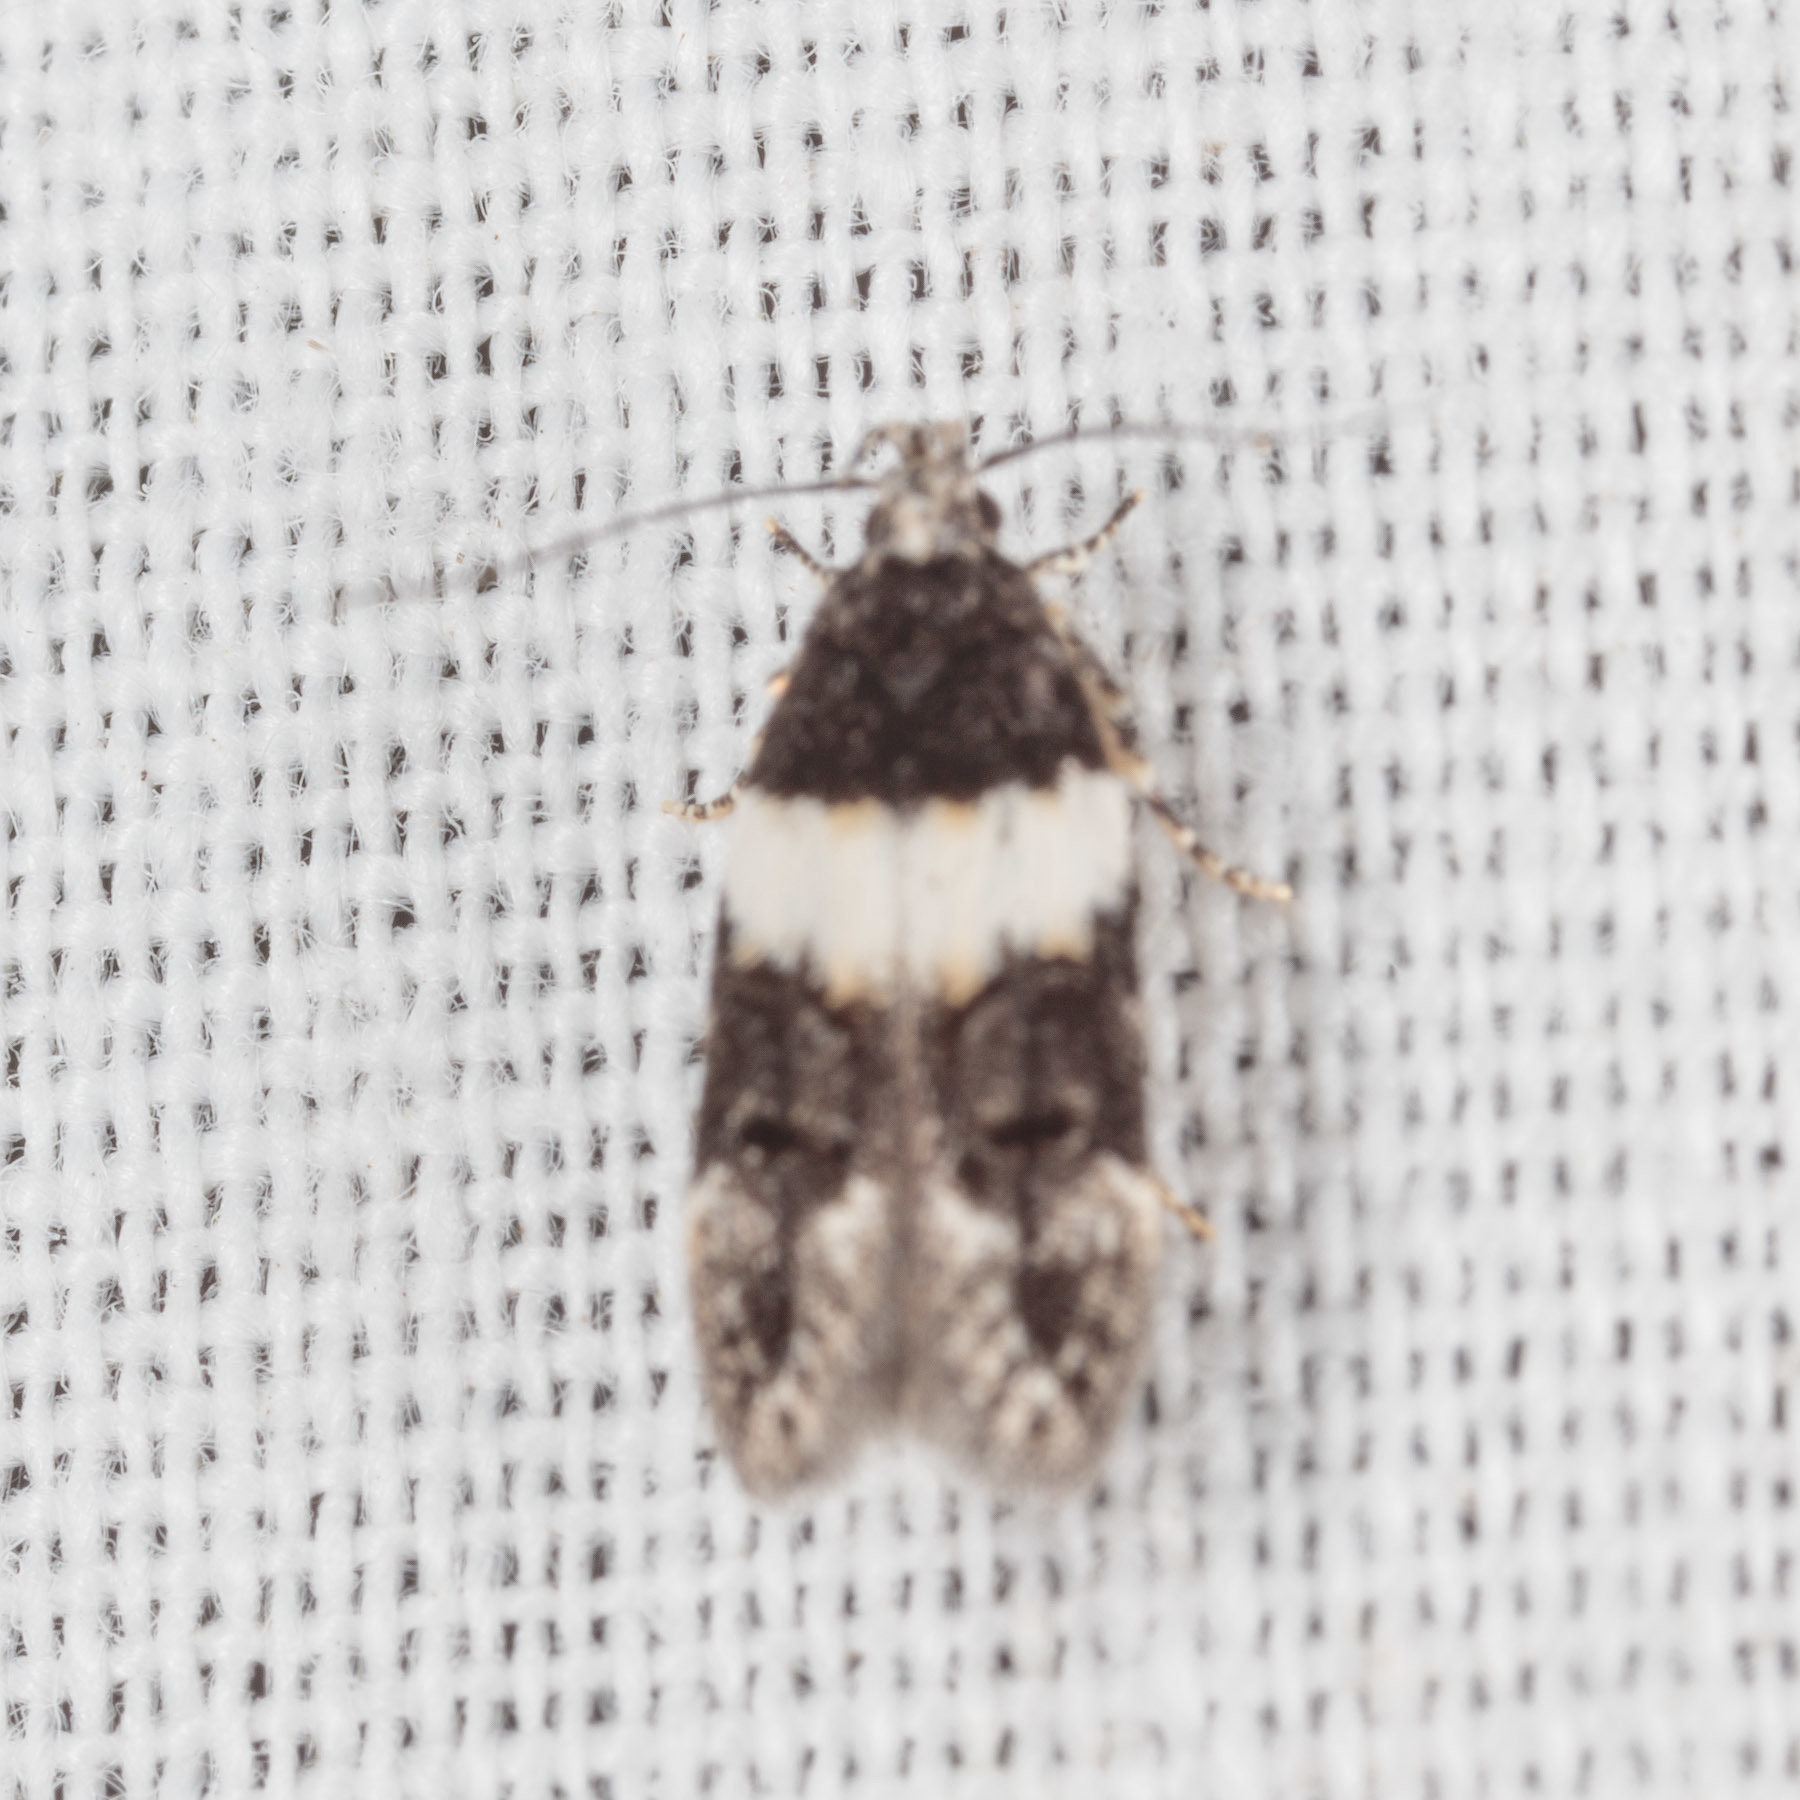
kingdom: Animalia
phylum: Arthropoda
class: Insecta
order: Lepidoptera
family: Gelechiidae
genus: Pubitelphusa
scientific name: Pubitelphusa latifasciella
